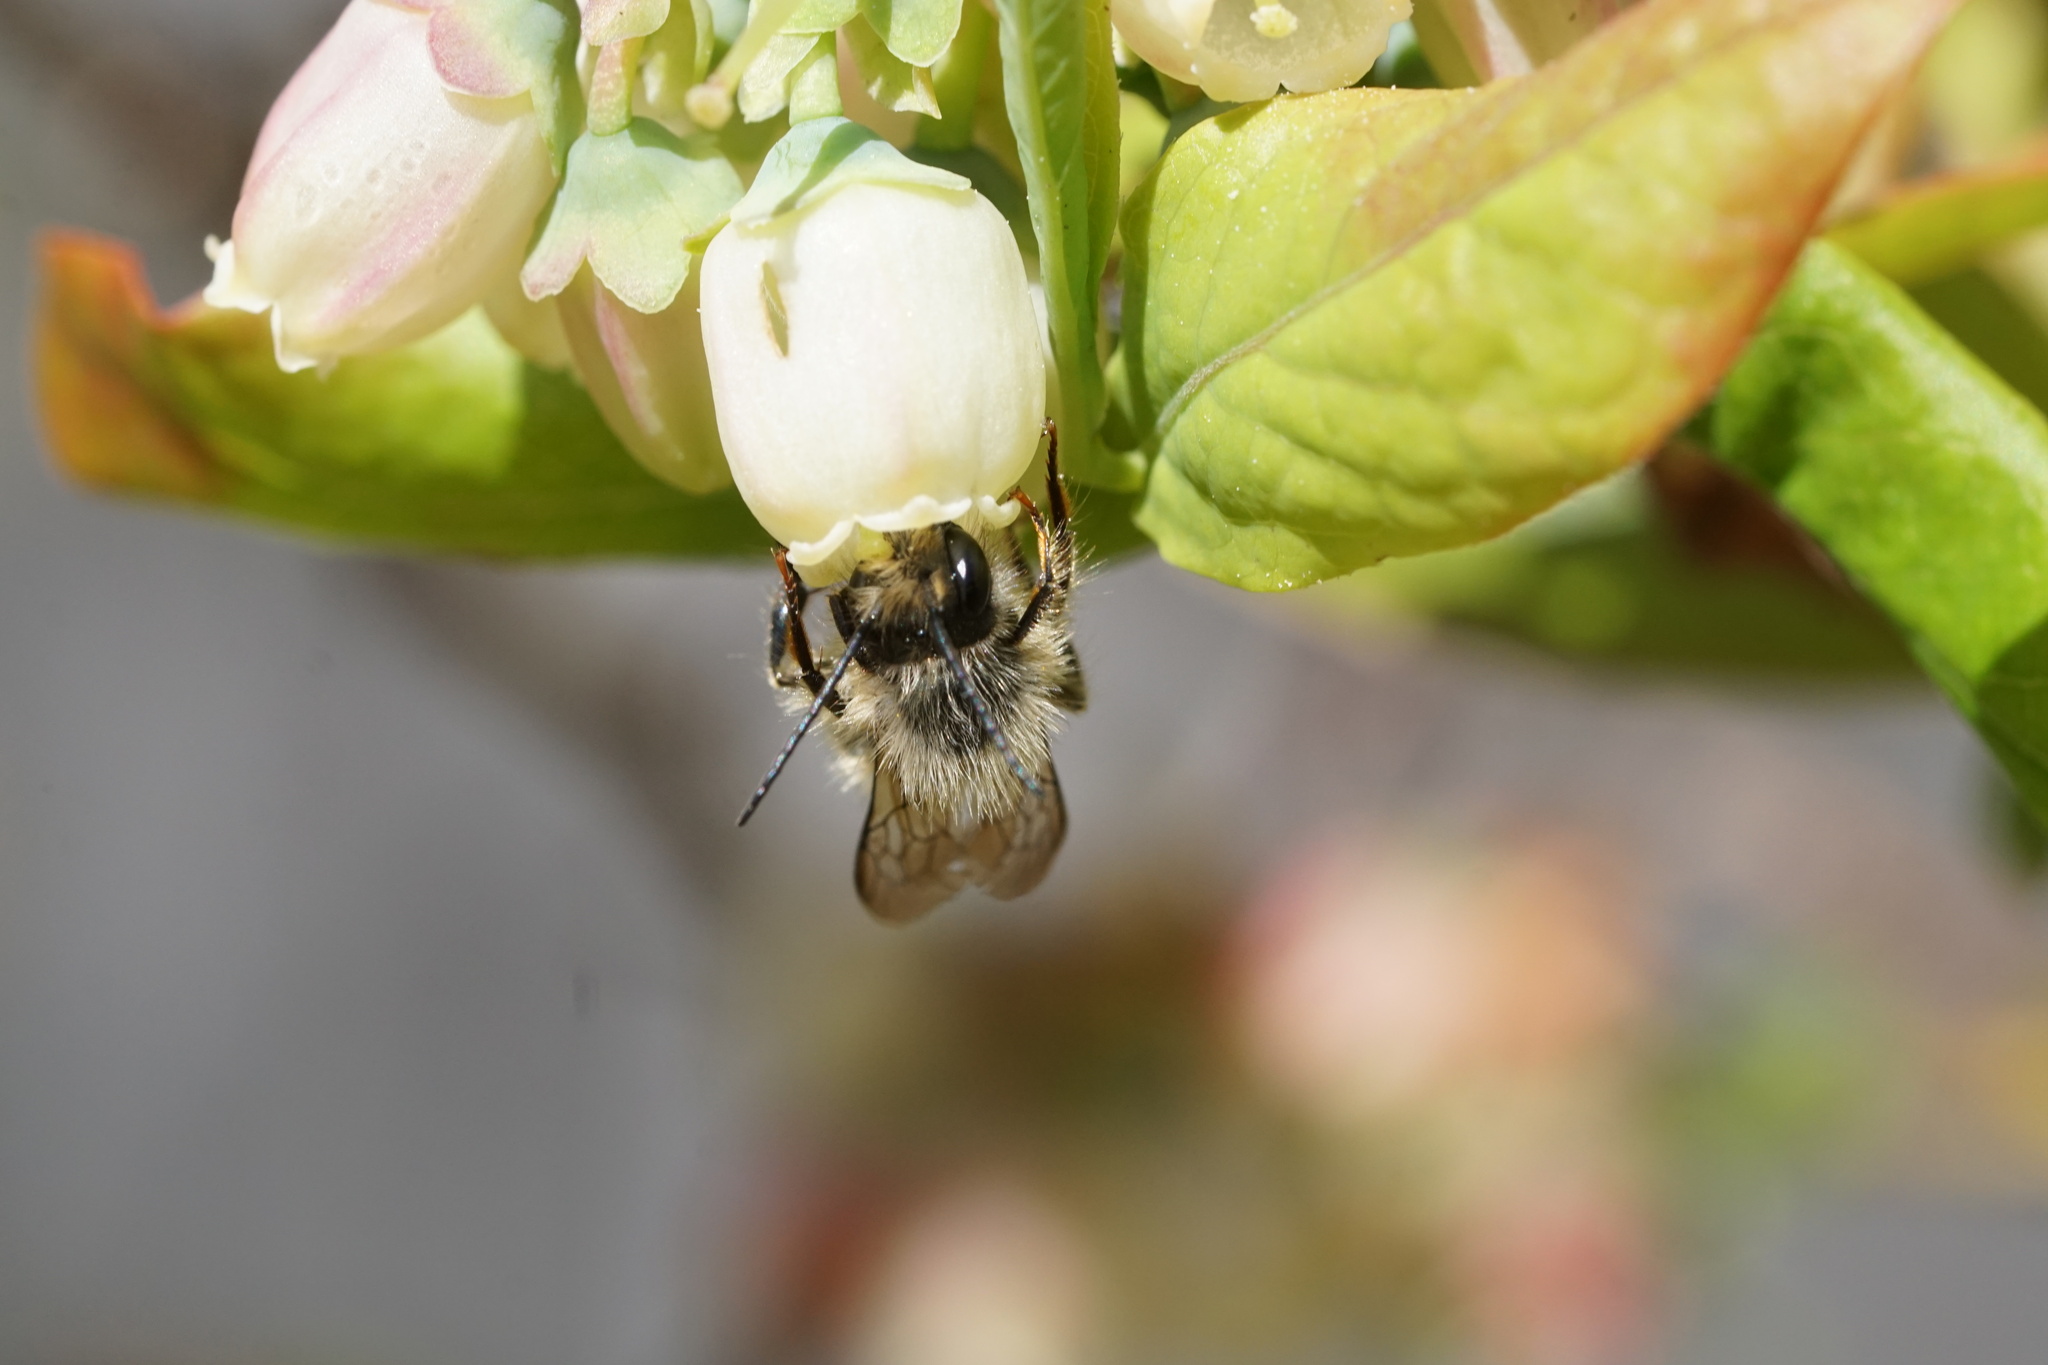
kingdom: Animalia
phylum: Arthropoda
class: Insecta
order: Hymenoptera
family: Megachilidae
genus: Osmia
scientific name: Osmia cornifrons
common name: Horn-faced bee
